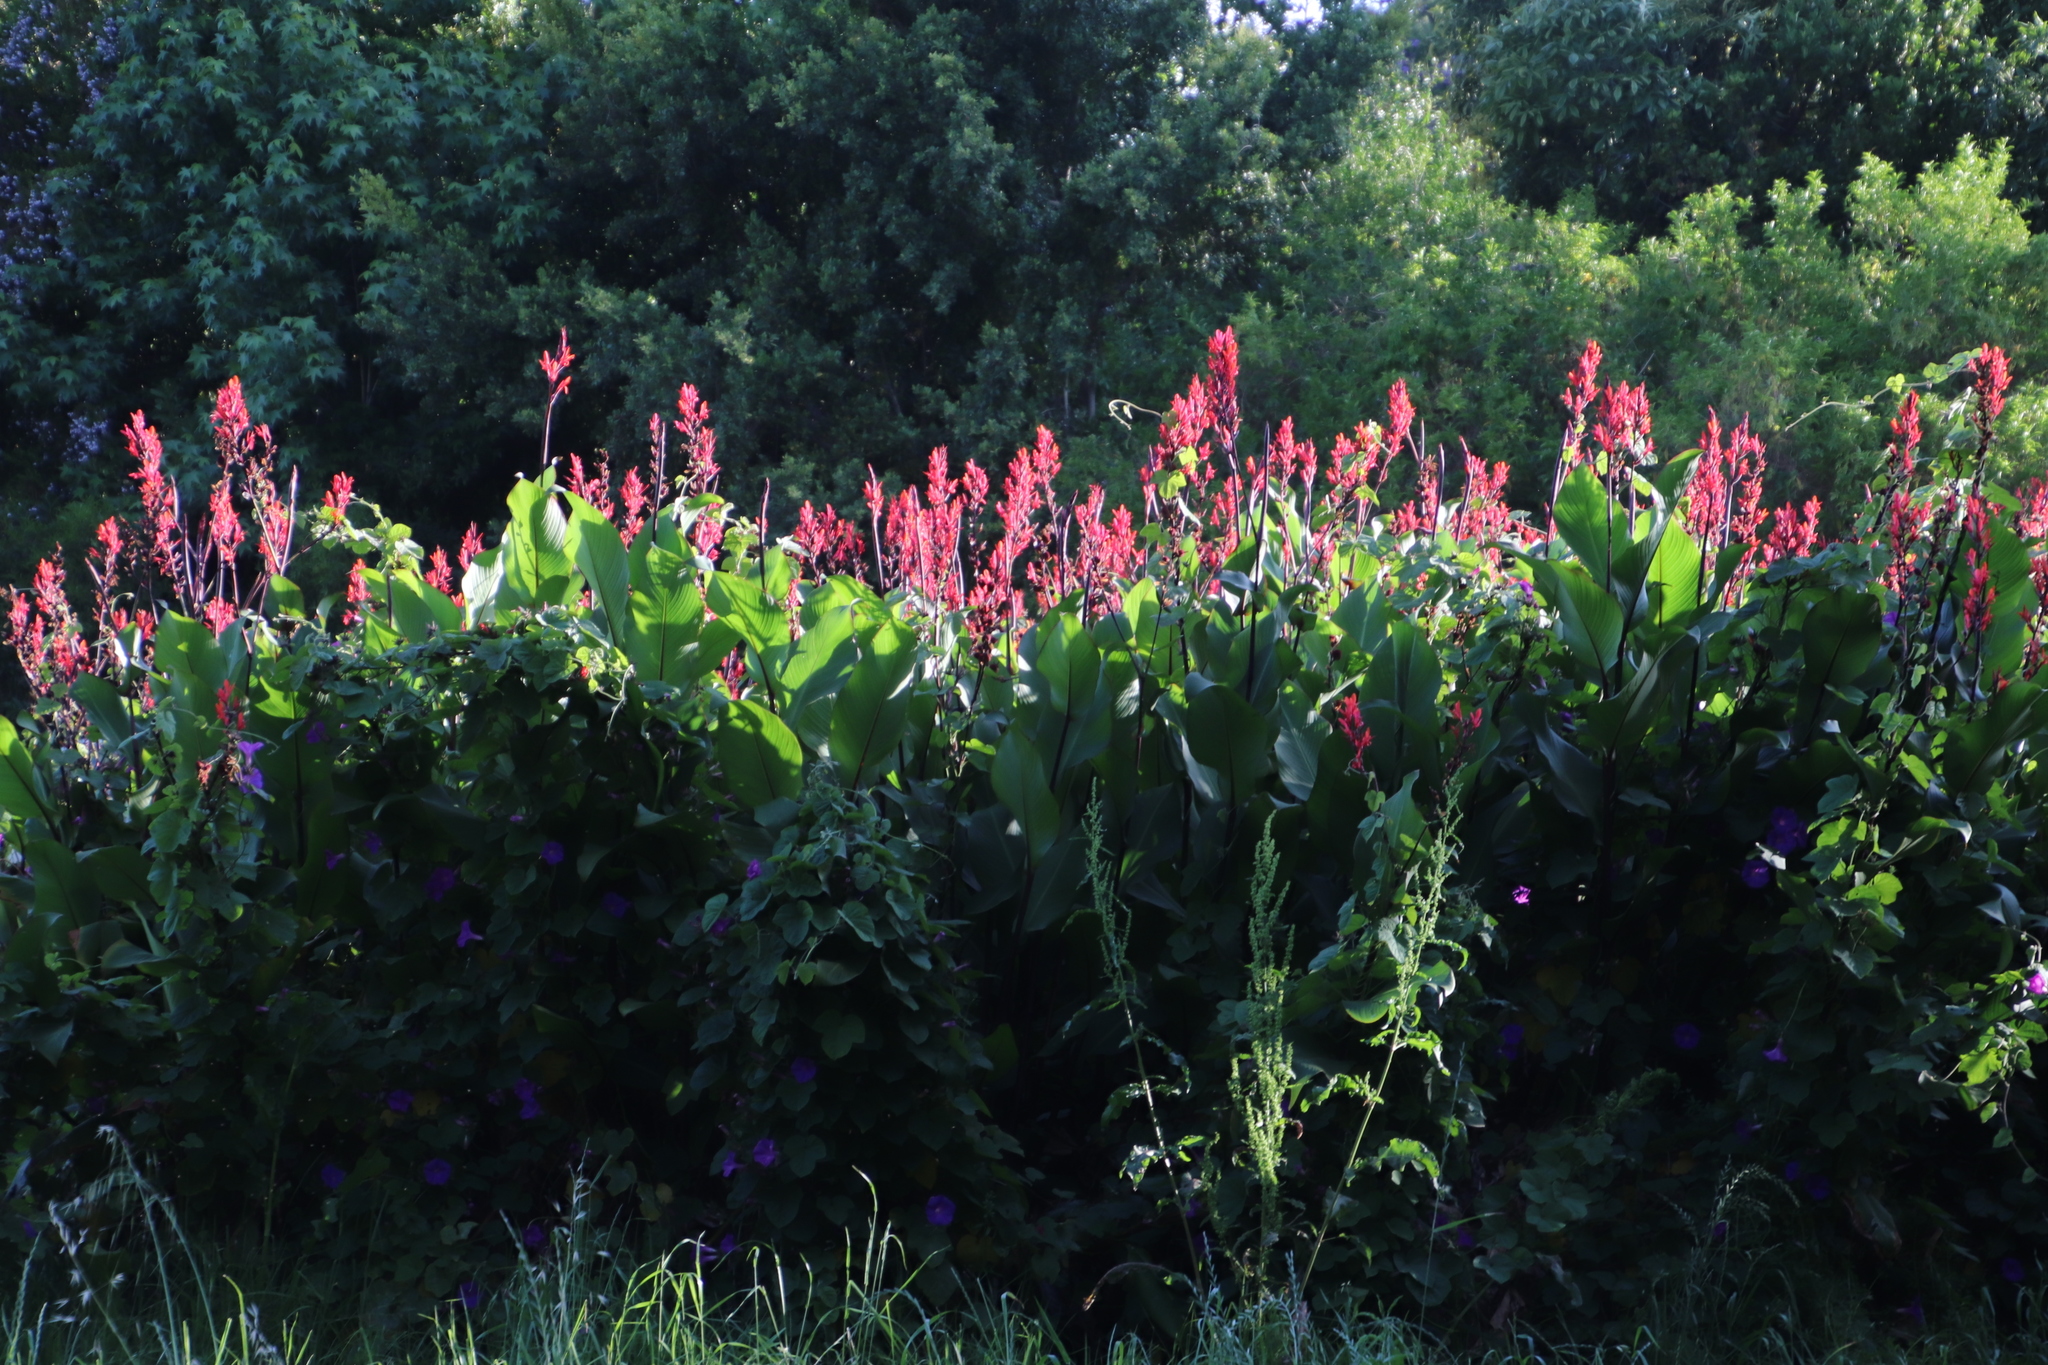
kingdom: Plantae
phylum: Tracheophyta
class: Liliopsida
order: Zingiberales
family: Cannaceae
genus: Canna
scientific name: Canna indica
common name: Indian shot
